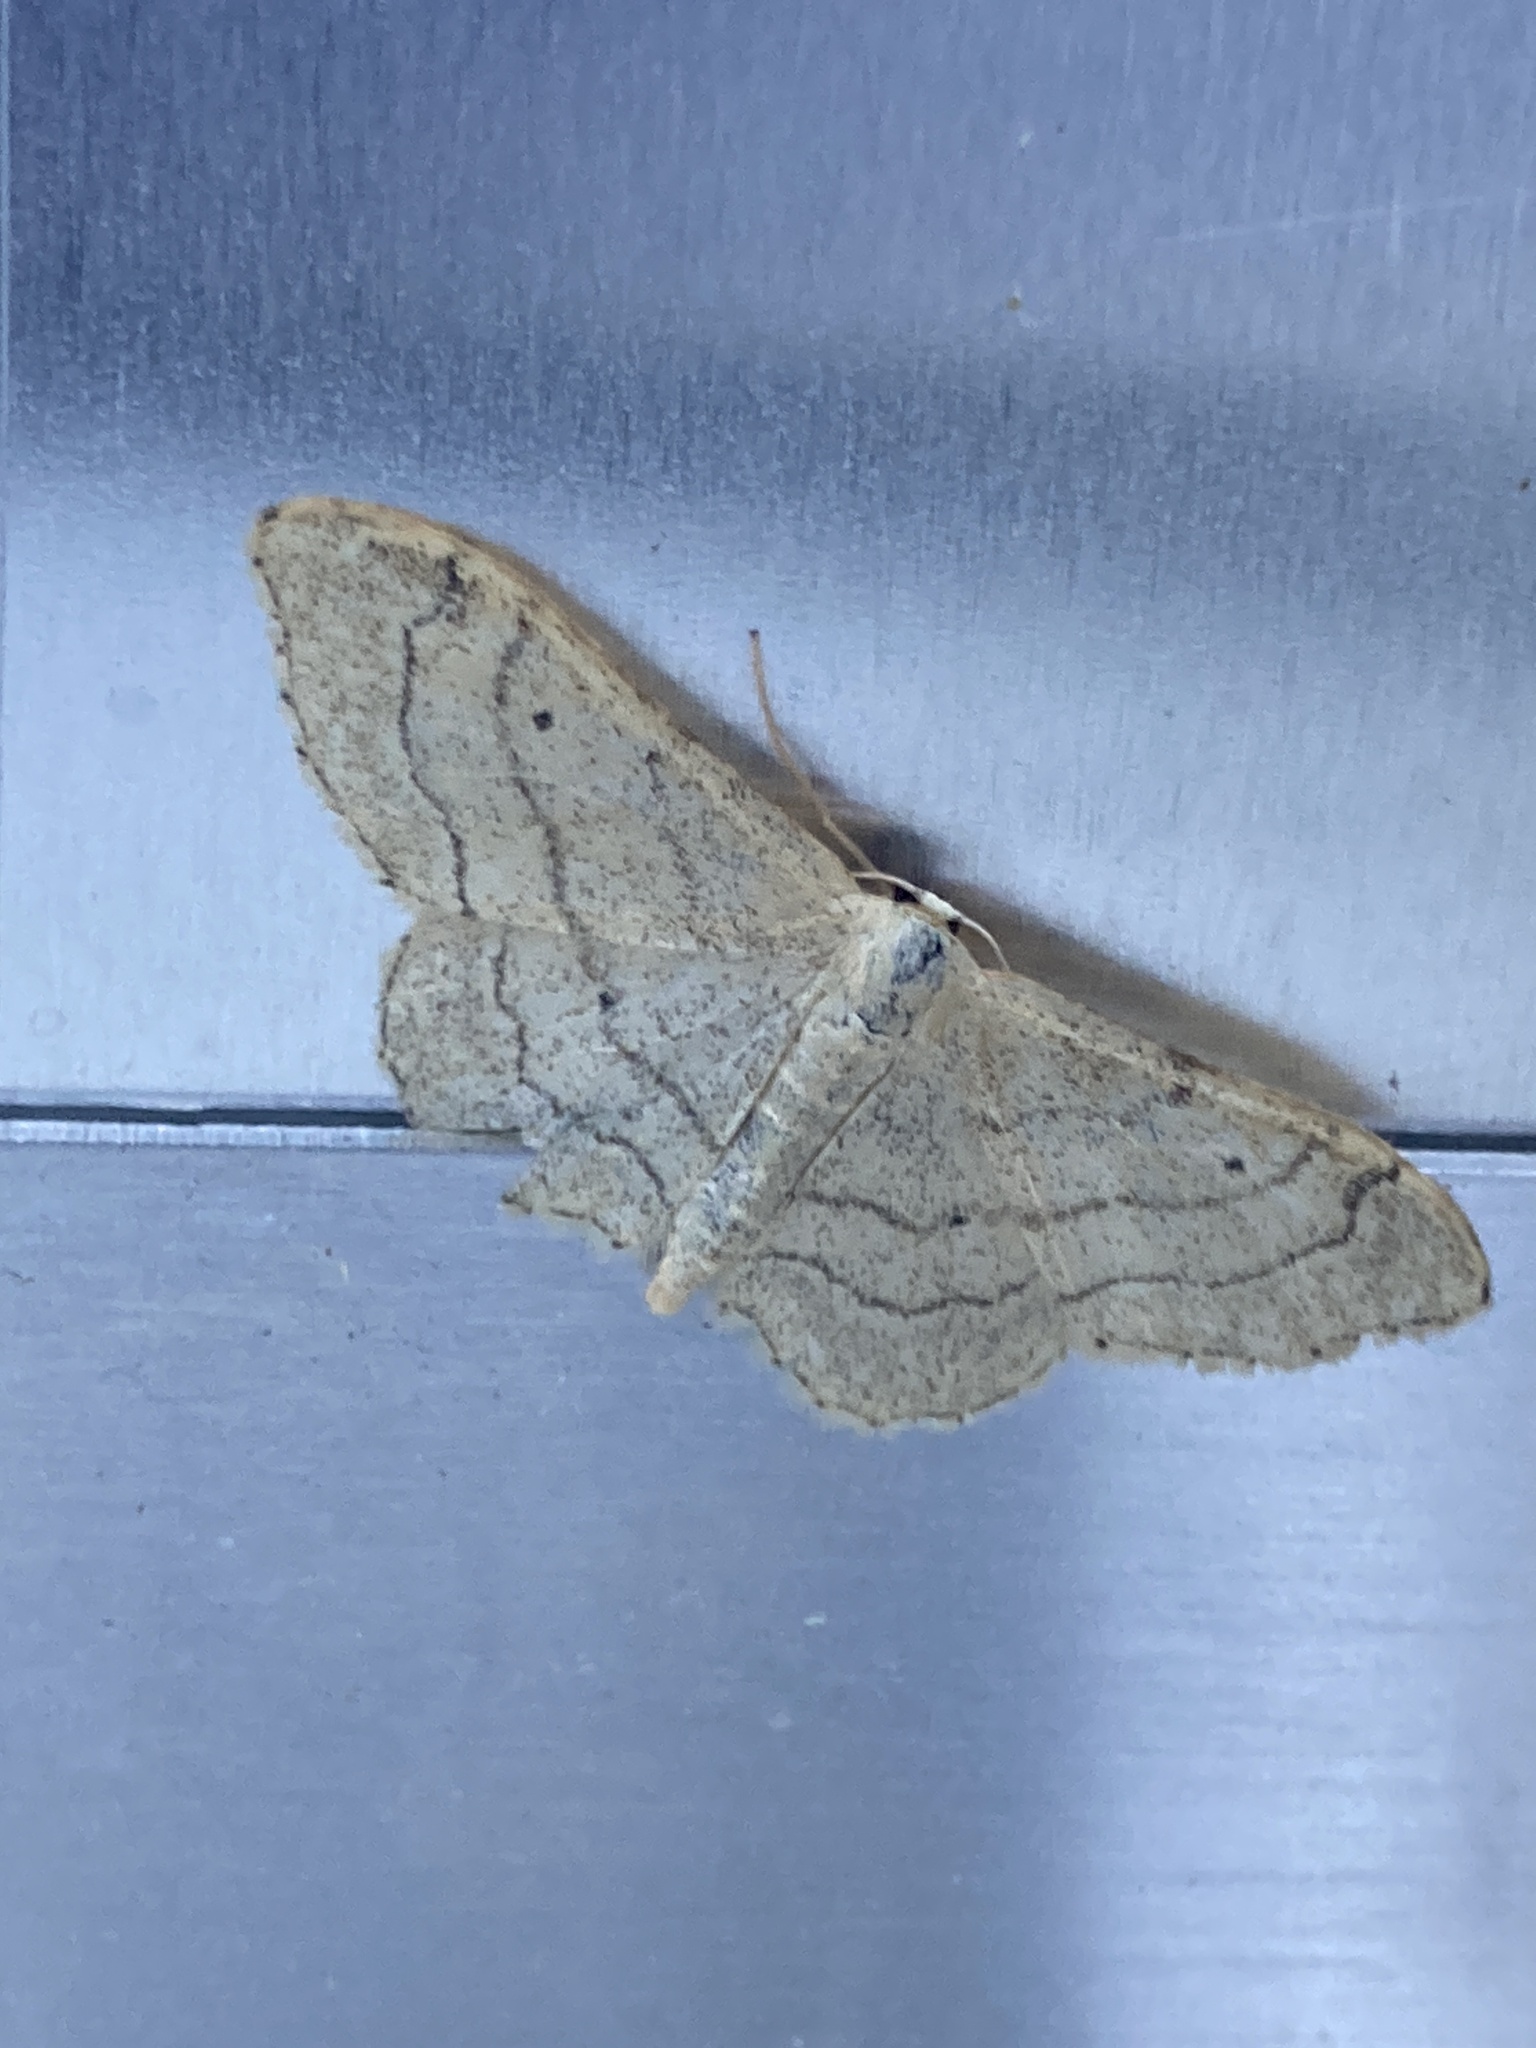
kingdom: Animalia
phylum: Arthropoda
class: Insecta
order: Lepidoptera
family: Geometridae
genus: Idaea
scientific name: Idaea aversata
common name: Riband wave
